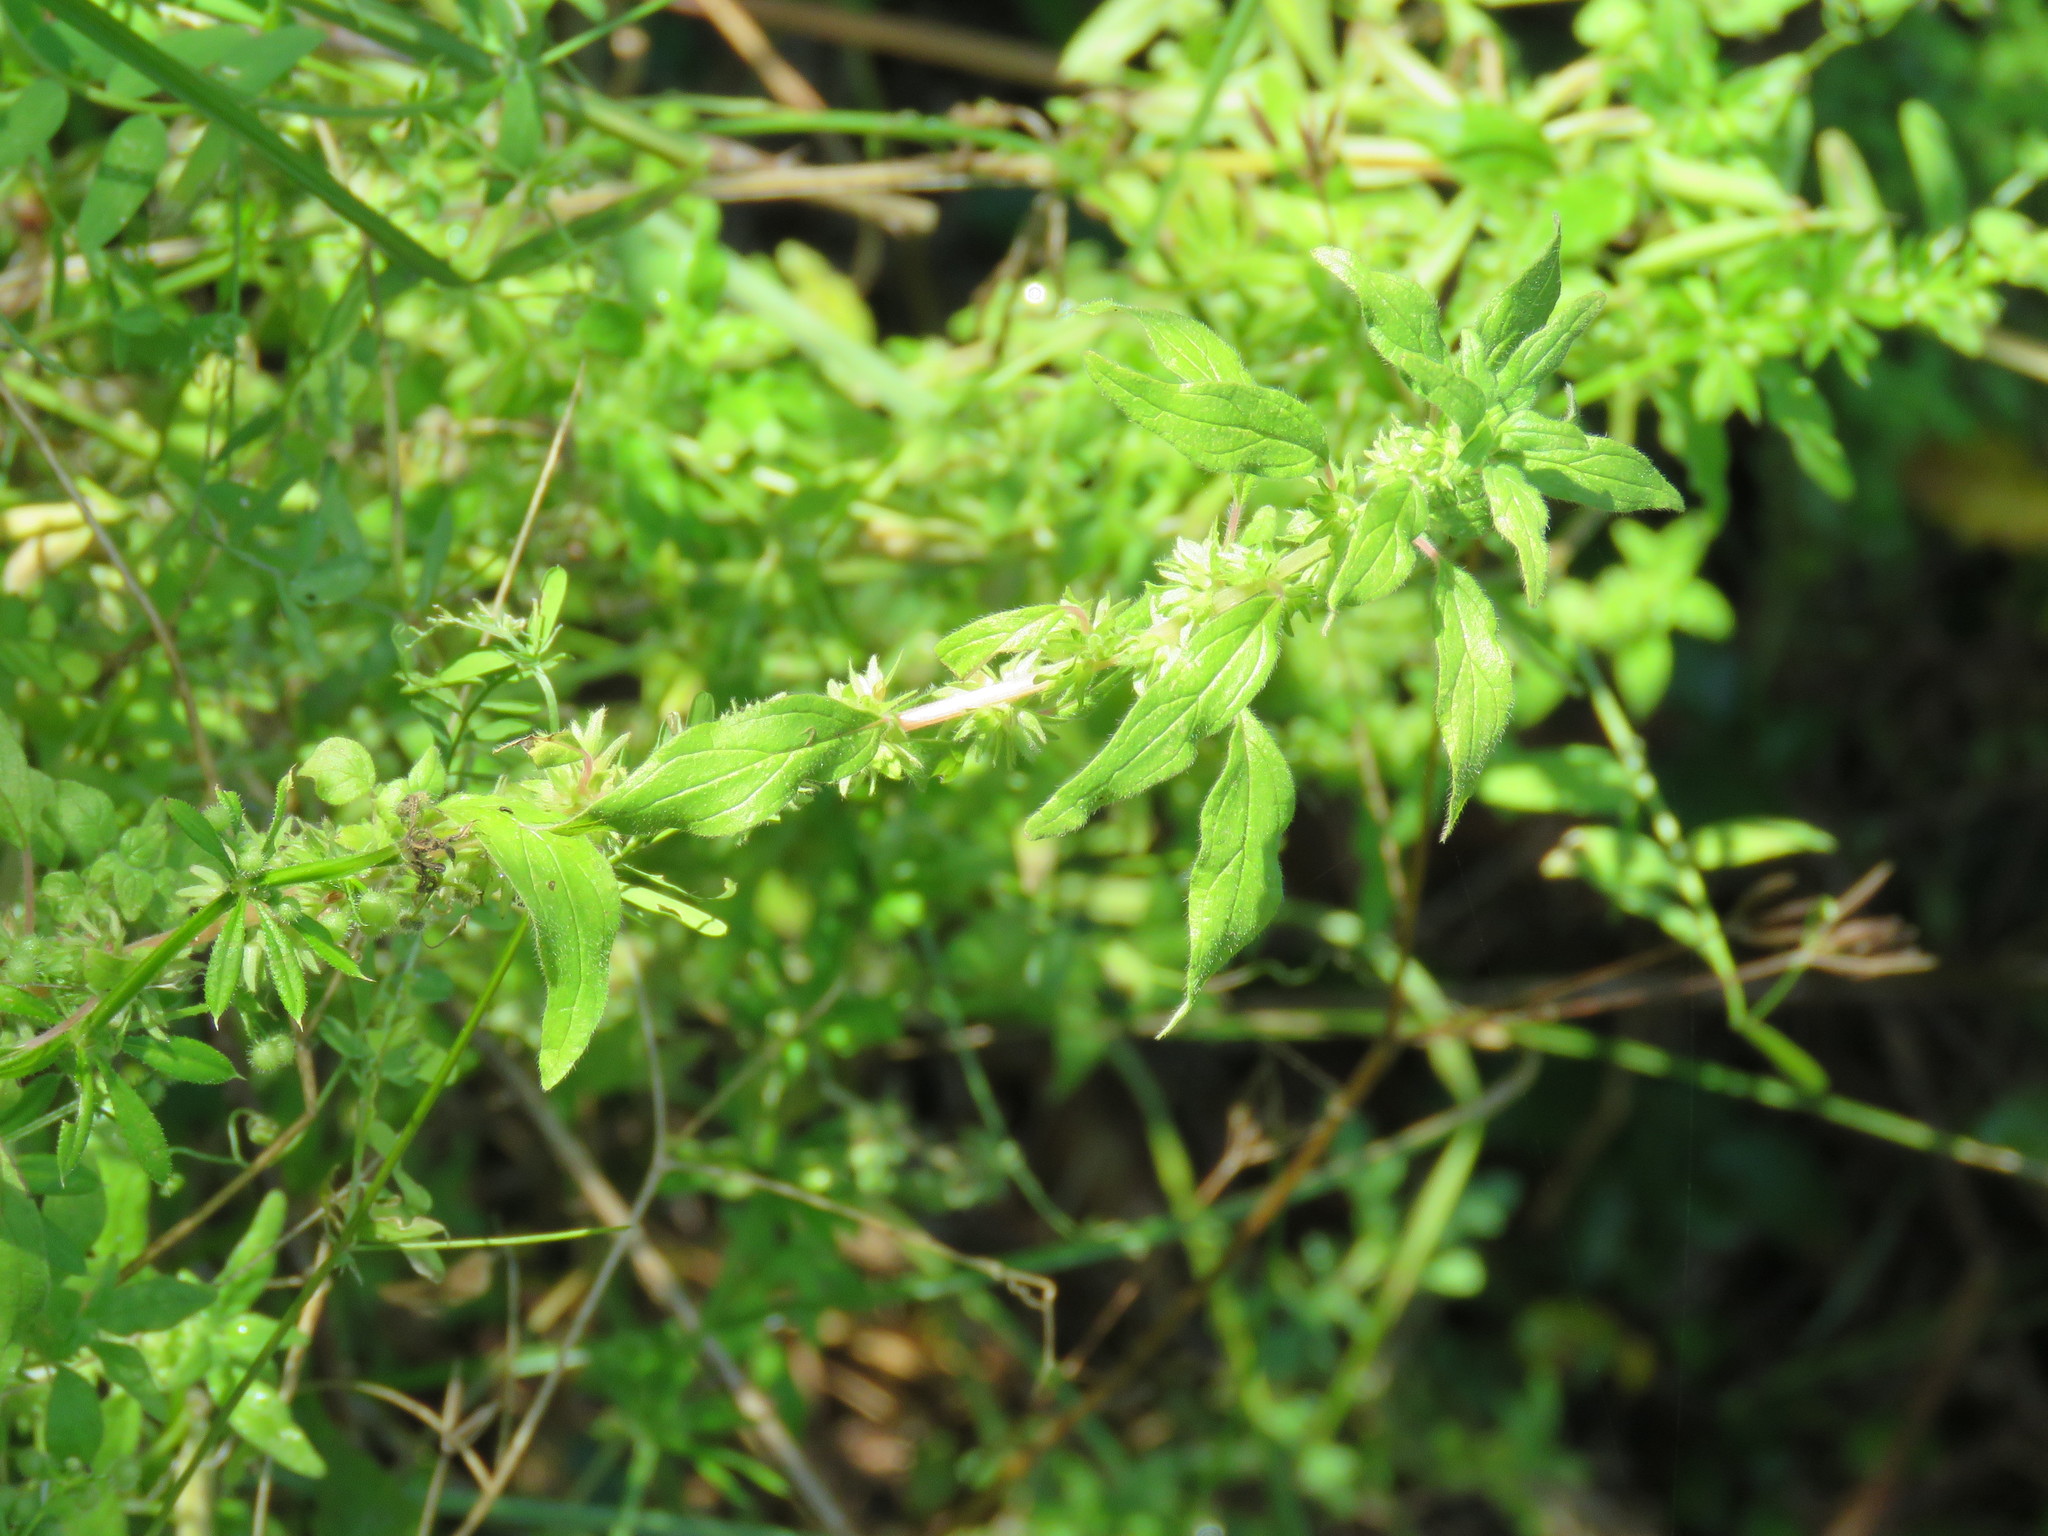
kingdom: Plantae
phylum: Tracheophyta
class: Magnoliopsida
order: Rosales
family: Urticaceae
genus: Parietaria
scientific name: Parietaria pensylvanica
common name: Pennsylvania pellitory
